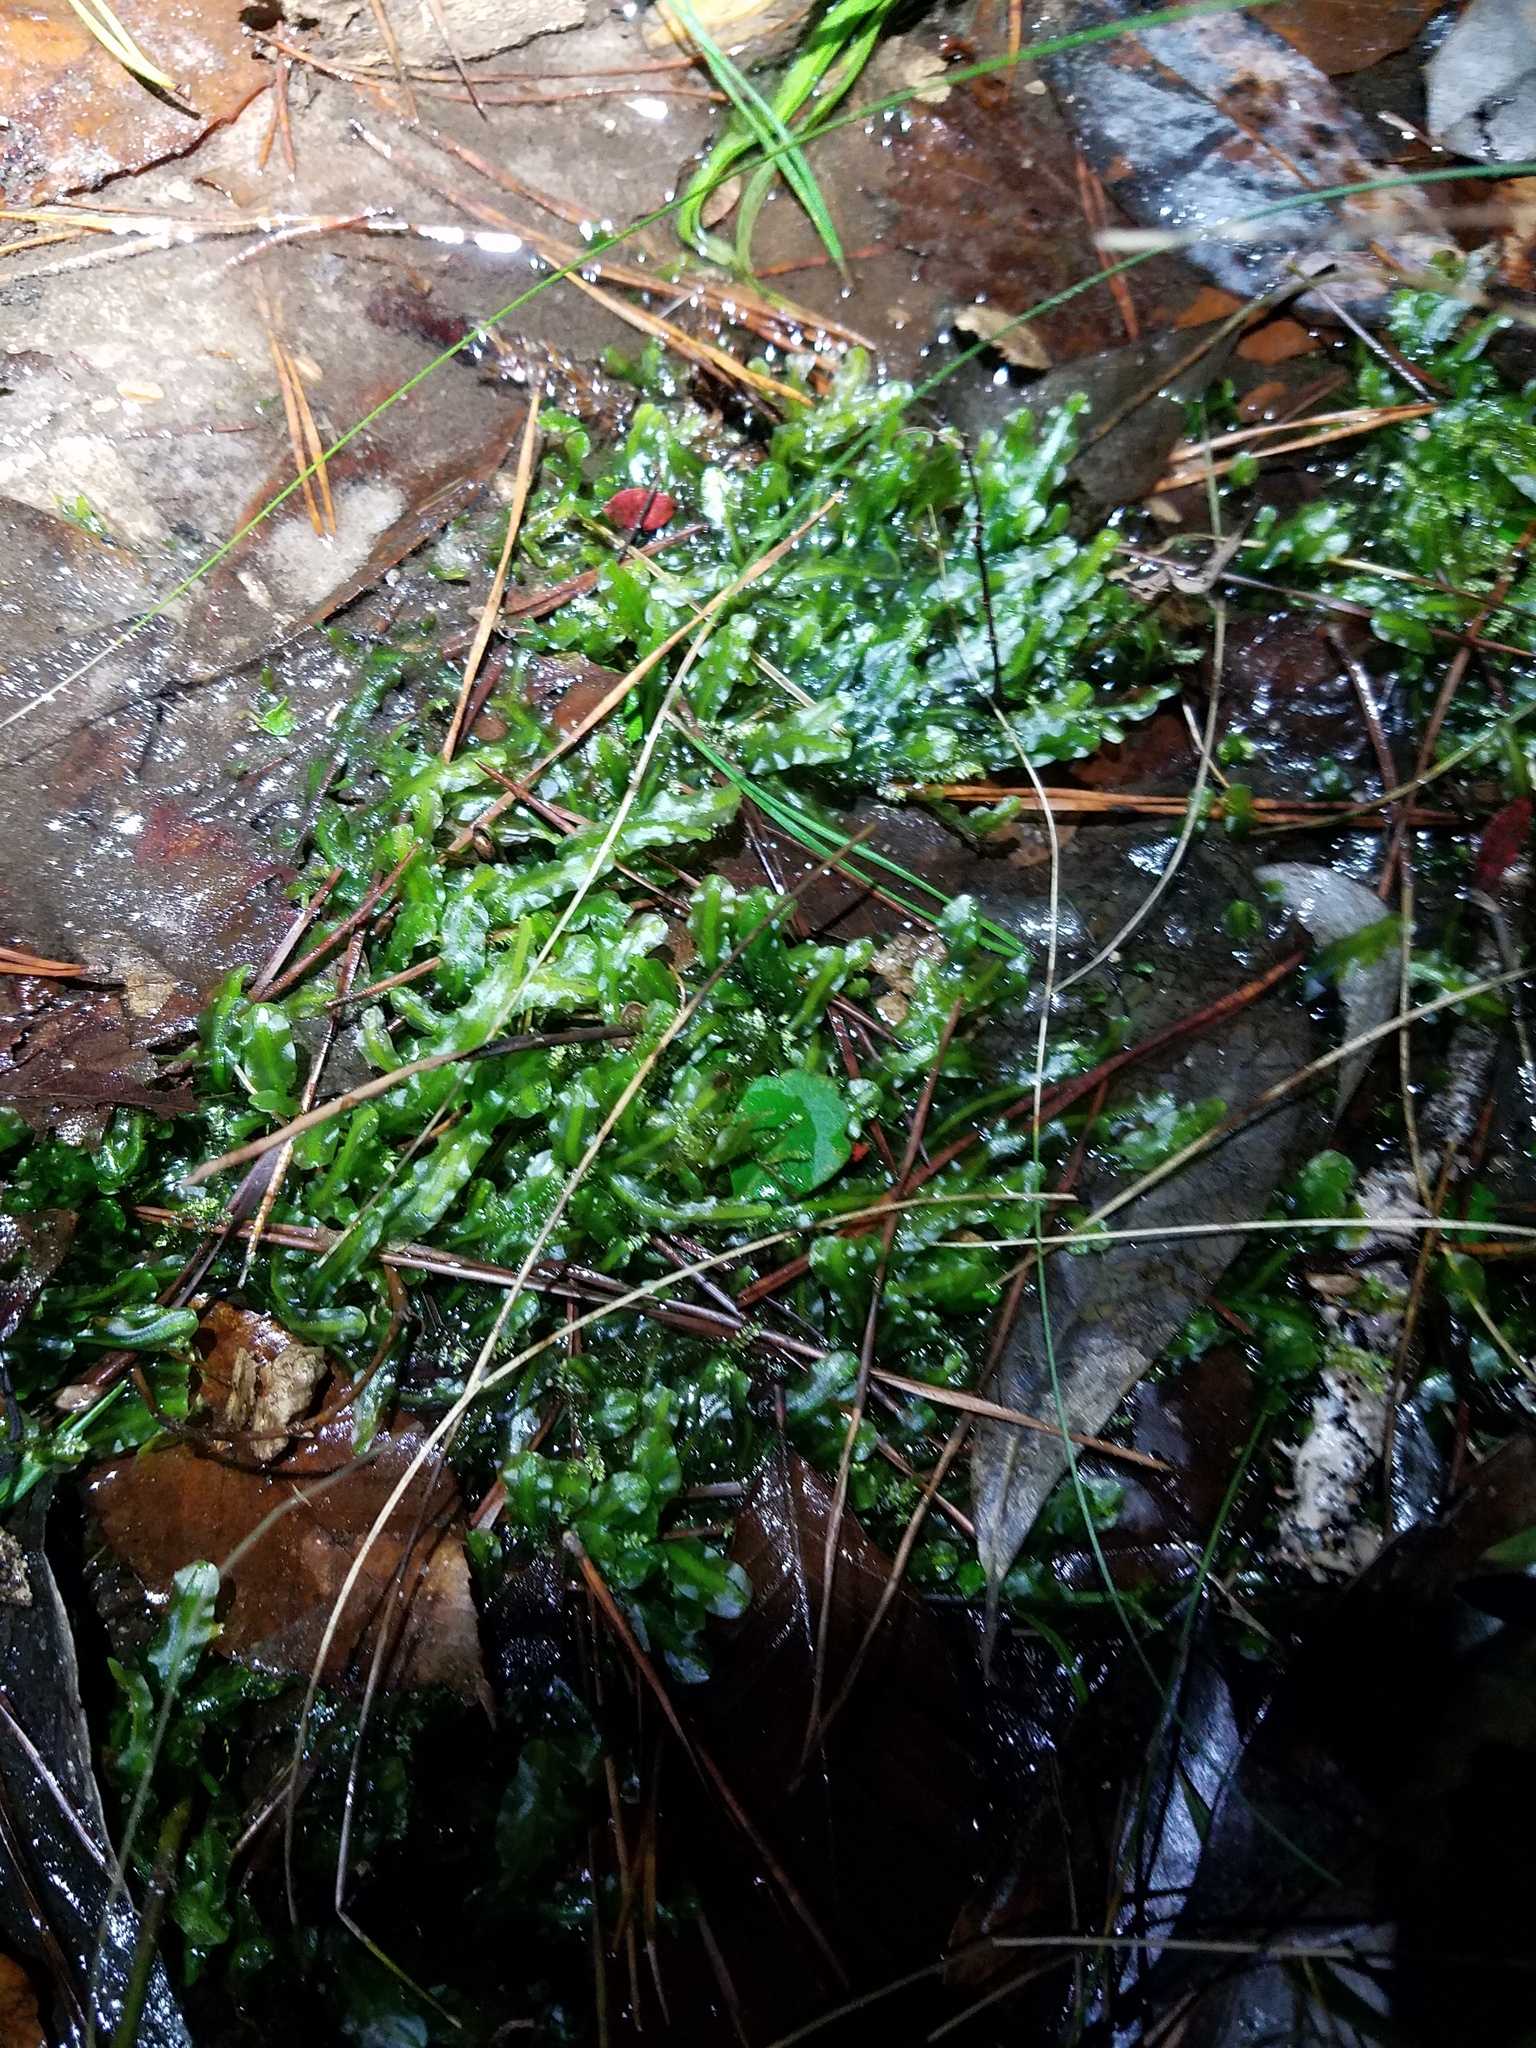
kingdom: Plantae
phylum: Marchantiophyta
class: Jungermanniopsida
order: Pallaviciniales
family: Pallaviciniaceae
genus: Pallavicinia
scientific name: Pallavicinia lyellii
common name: Veilwort
